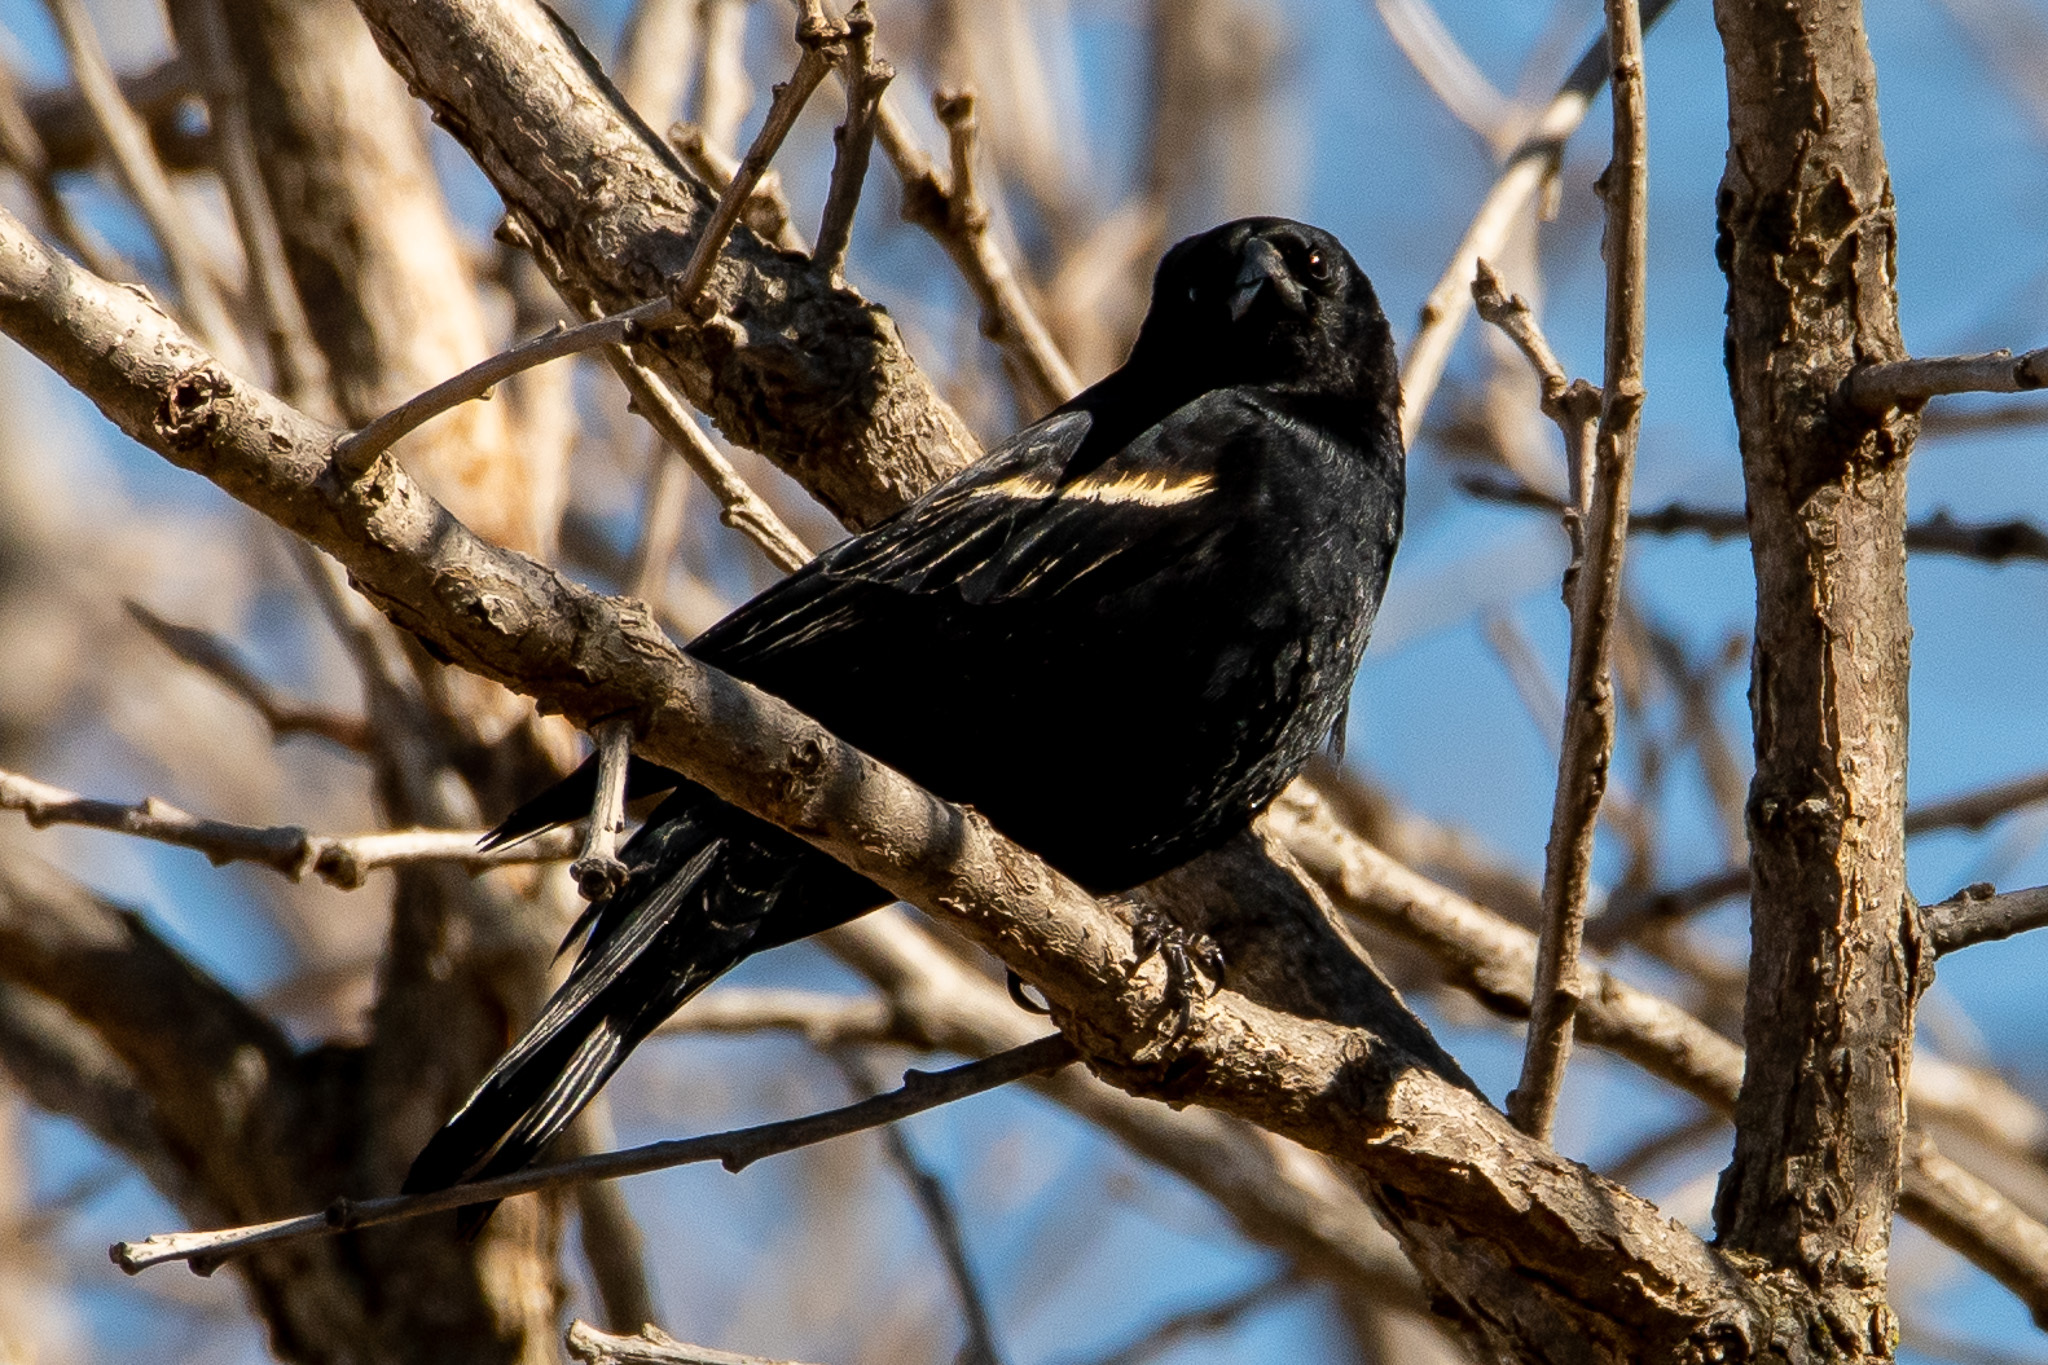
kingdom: Animalia
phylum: Chordata
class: Aves
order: Passeriformes
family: Icteridae
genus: Agelaius
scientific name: Agelaius phoeniceus
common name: Red-winged blackbird
